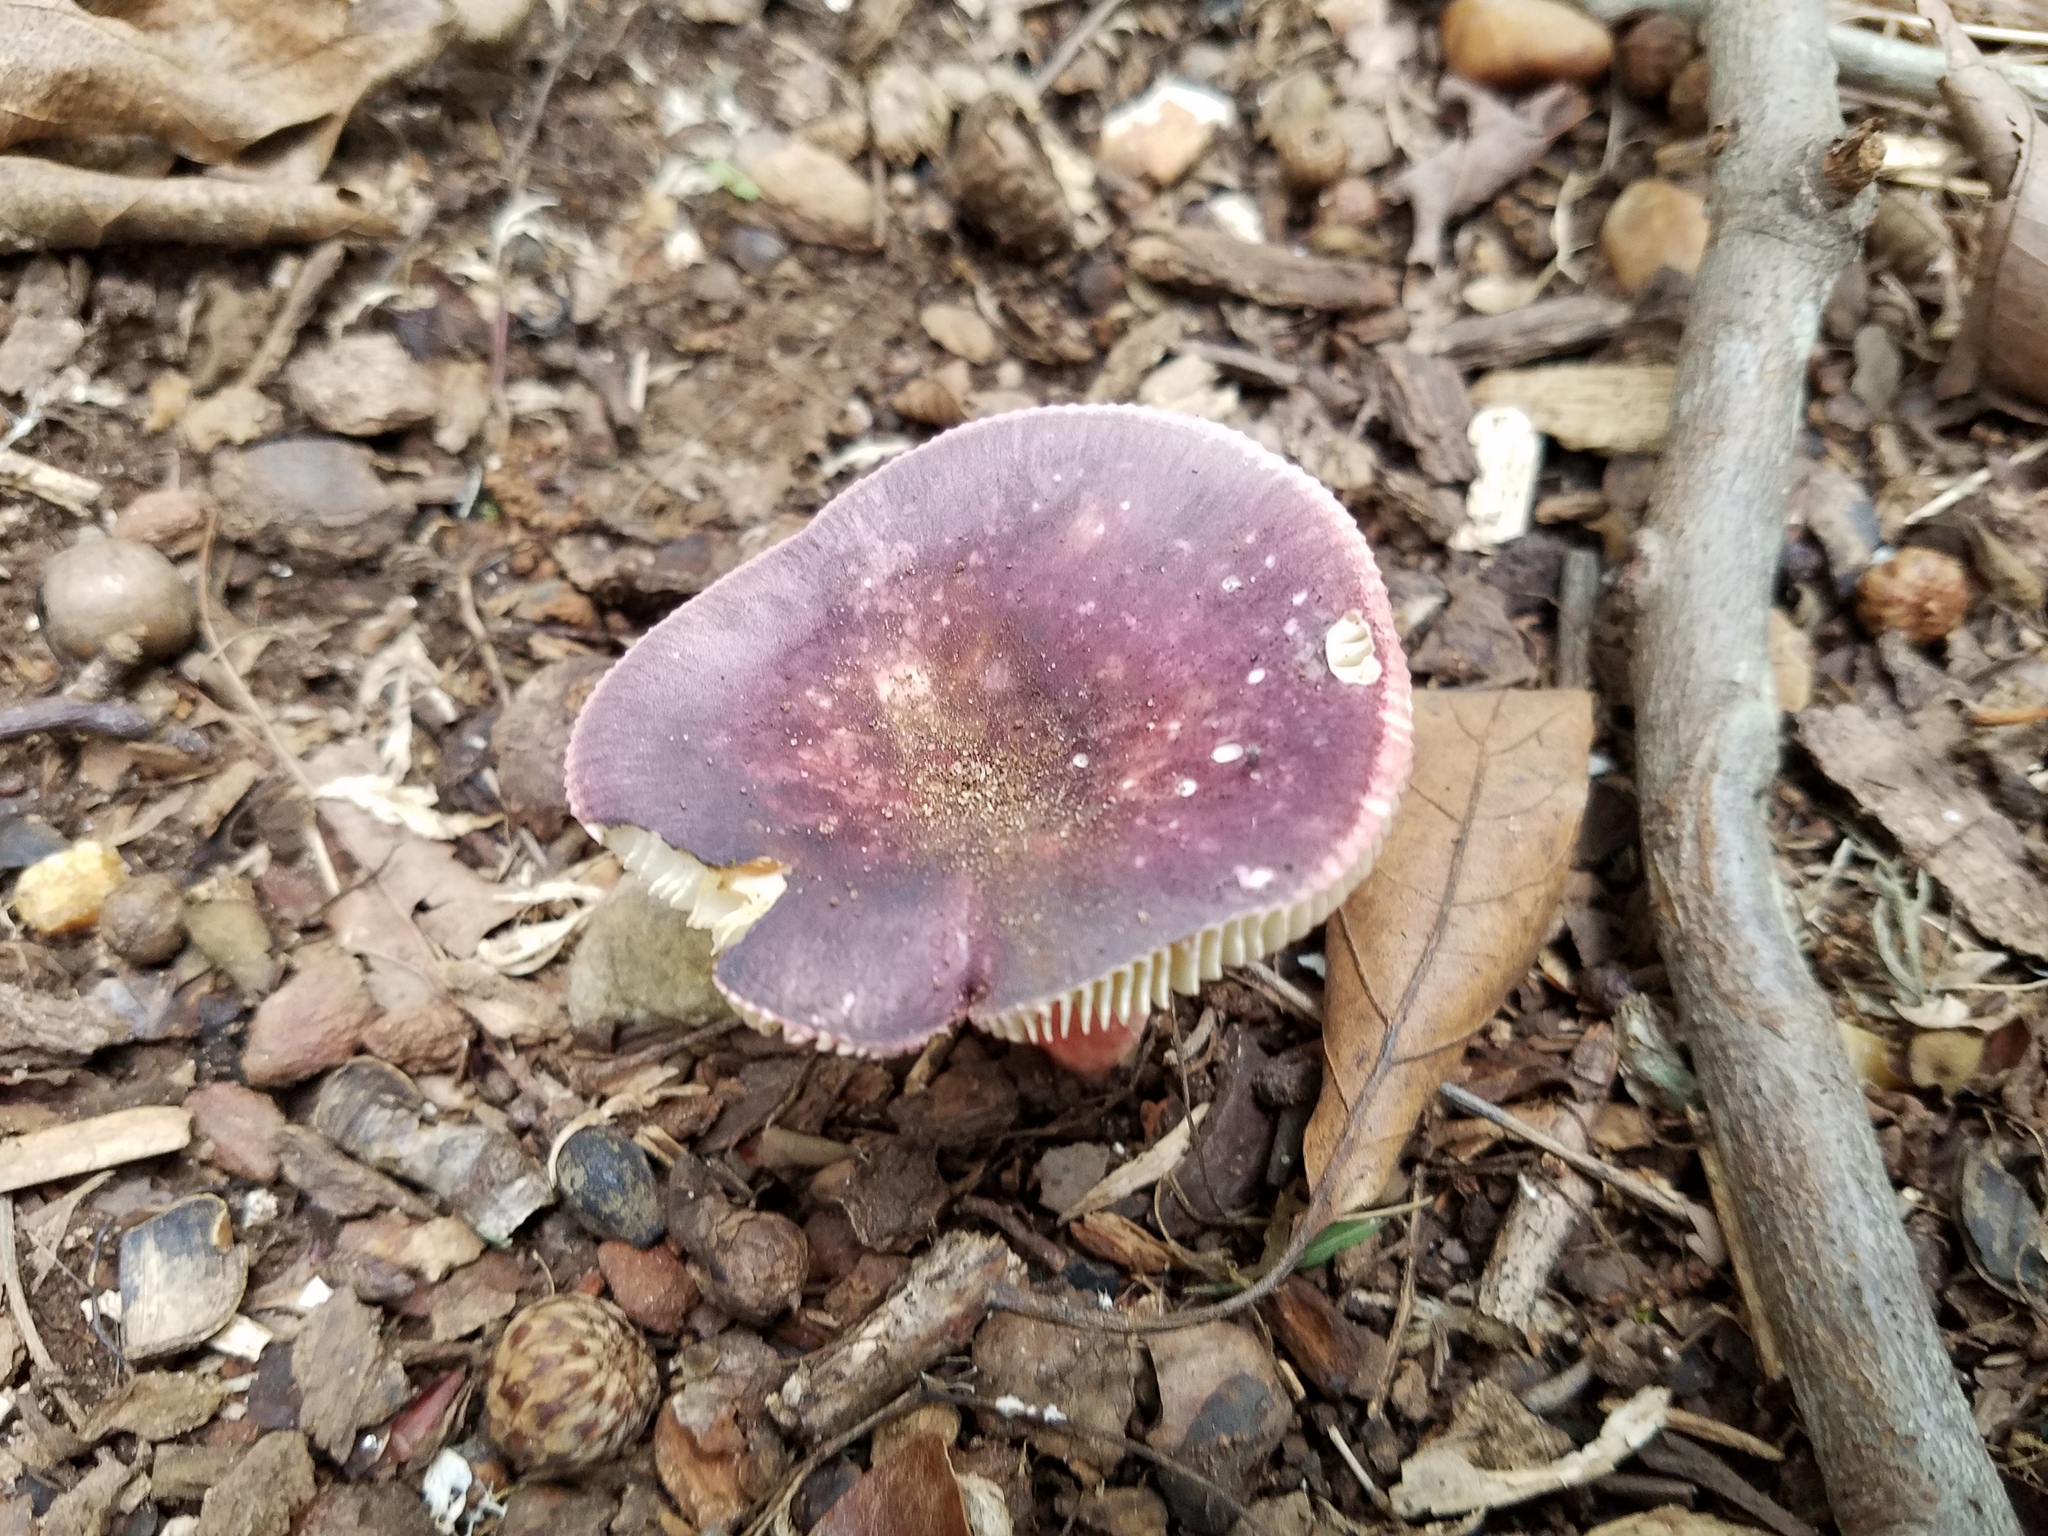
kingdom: Fungi
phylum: Basidiomycota
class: Agaricomycetes
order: Russulales
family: Russulaceae
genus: Russula
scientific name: Russula
